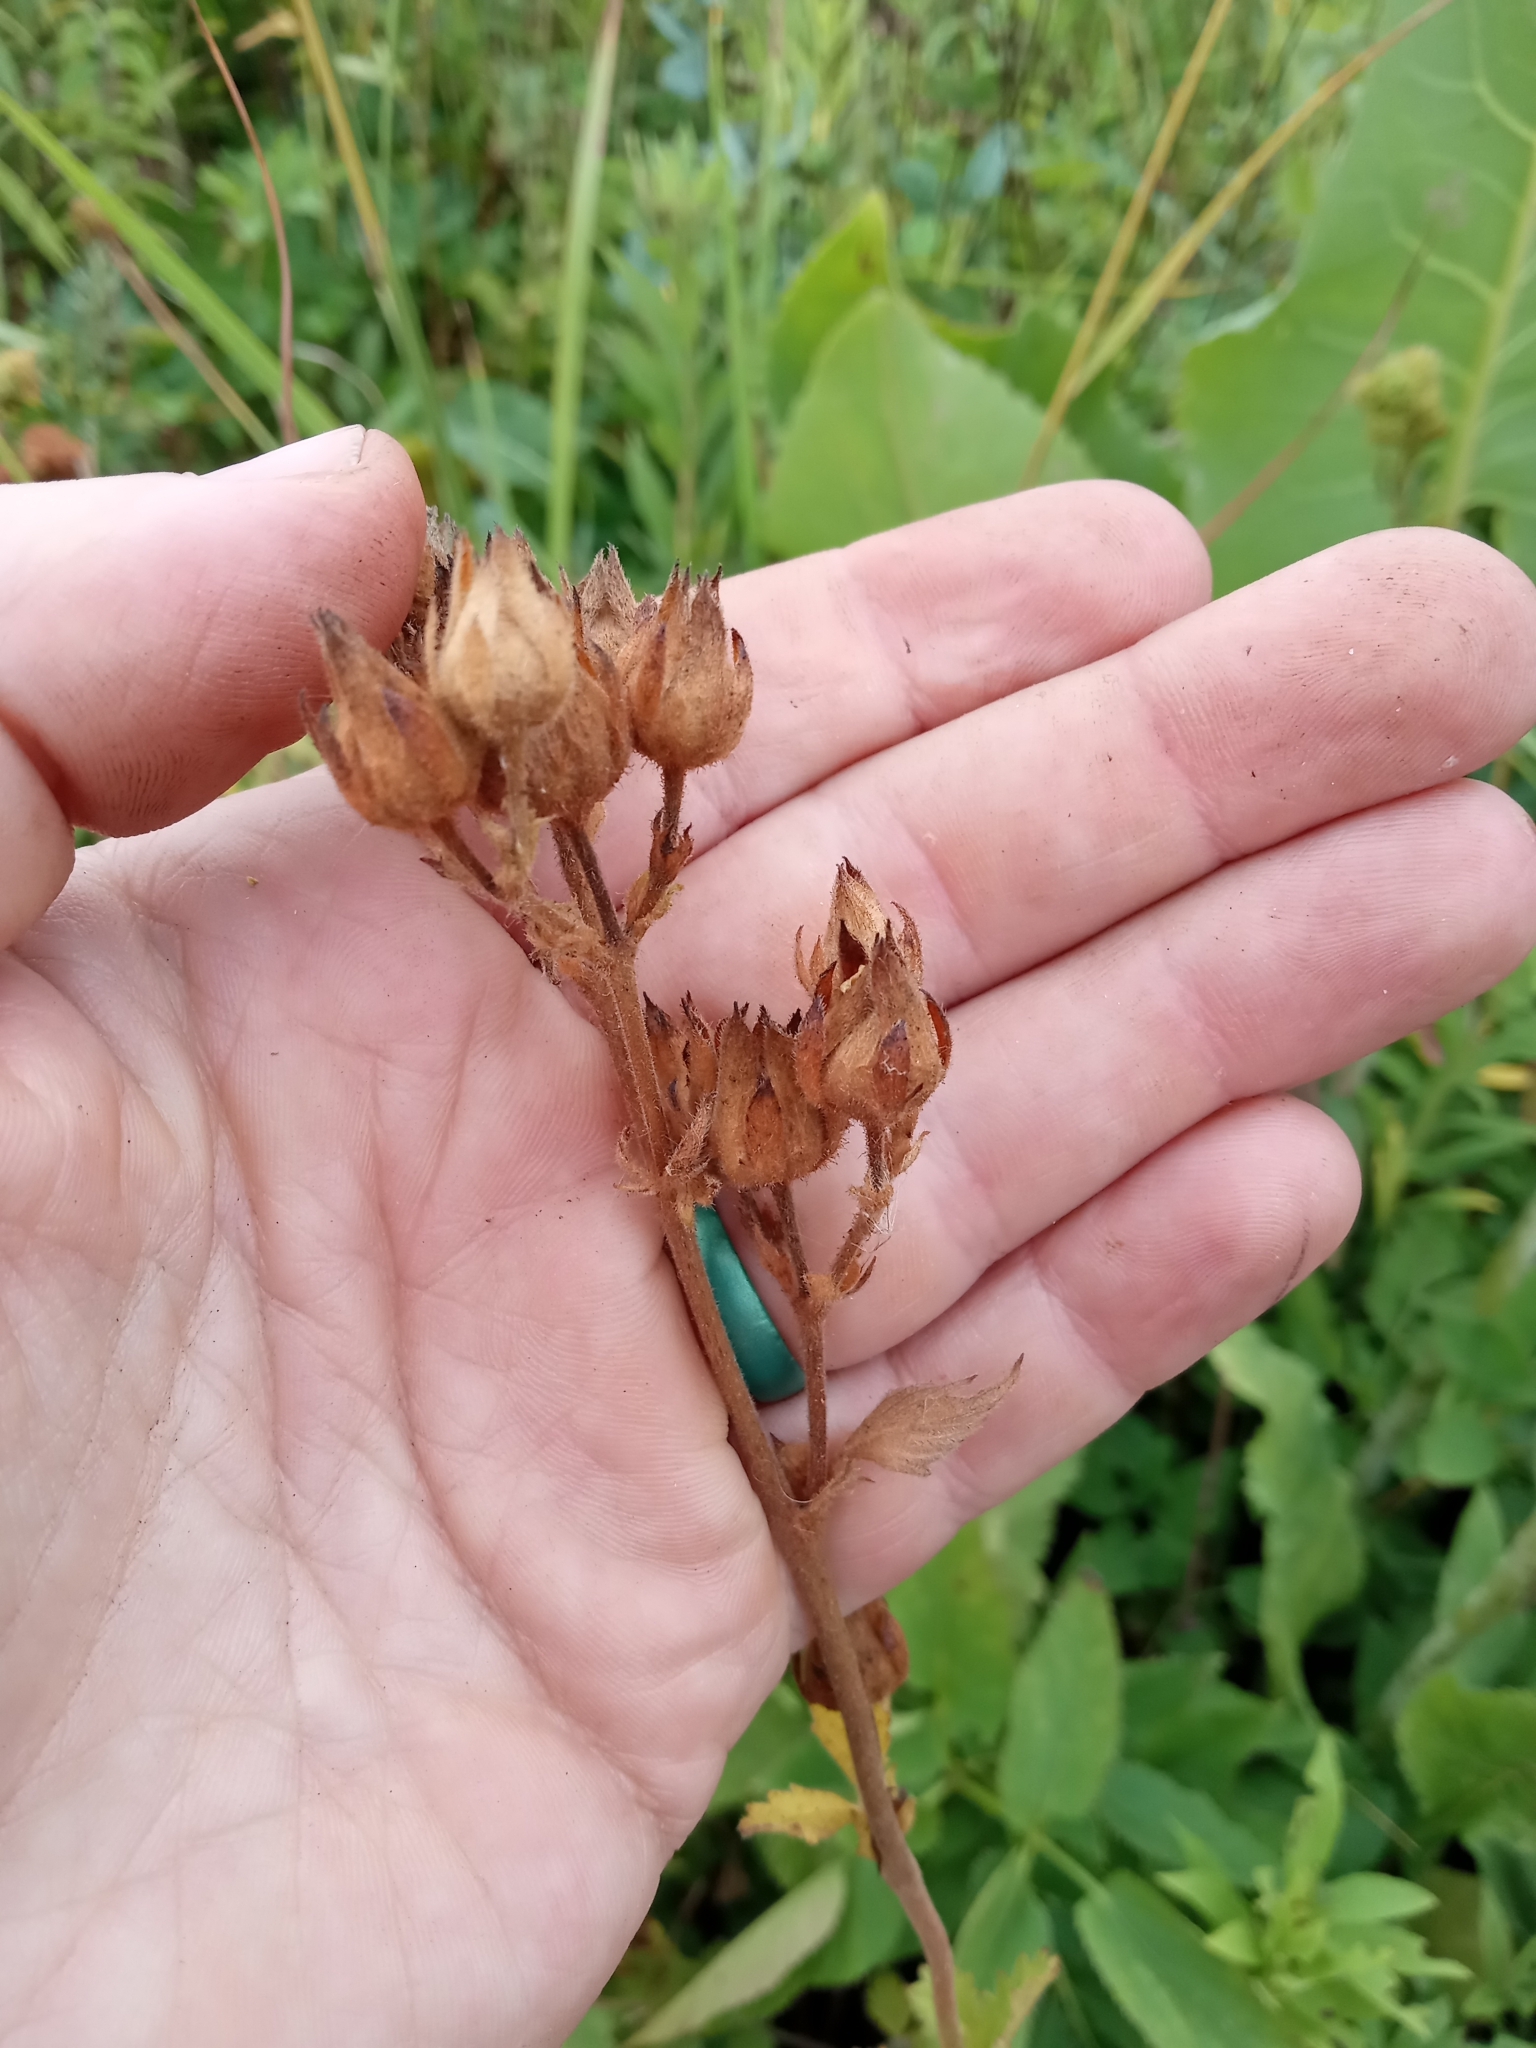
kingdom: Plantae
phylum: Tracheophyta
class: Magnoliopsida
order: Rosales
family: Rosaceae
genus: Drymocallis
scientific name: Drymocallis arguta
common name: Tall cinquefoil
